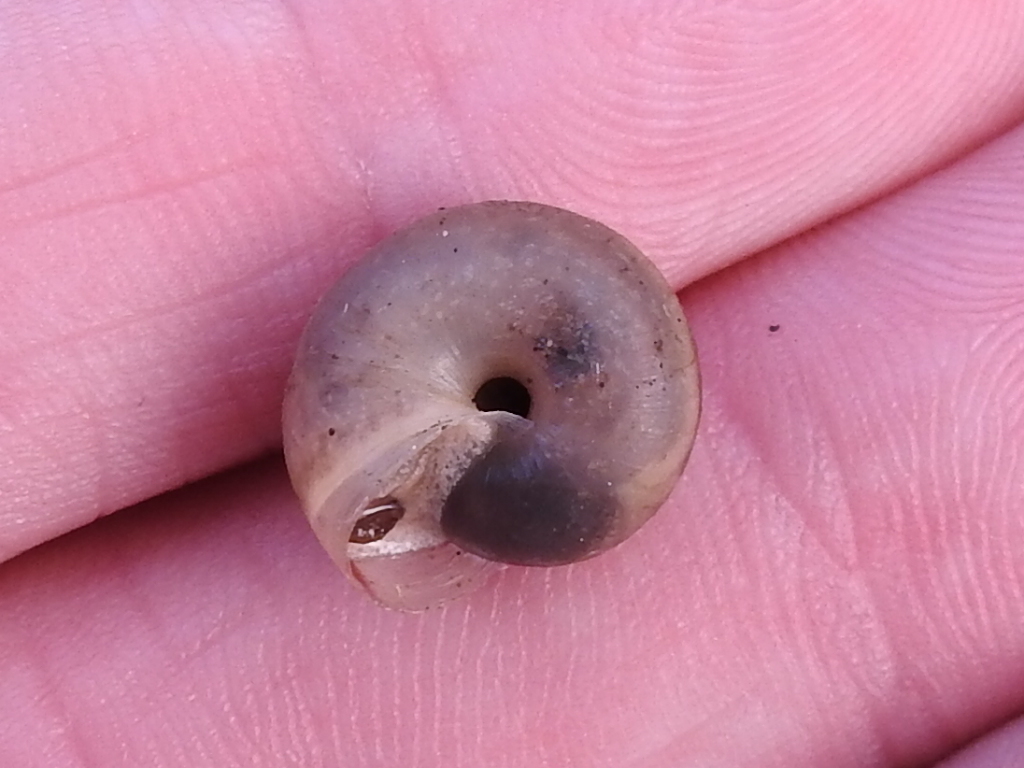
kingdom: Animalia
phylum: Mollusca
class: Gastropoda
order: Stylommatophora
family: Camaenidae
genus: Bradybaena
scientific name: Bradybaena similaris
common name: Asian trampsnail
